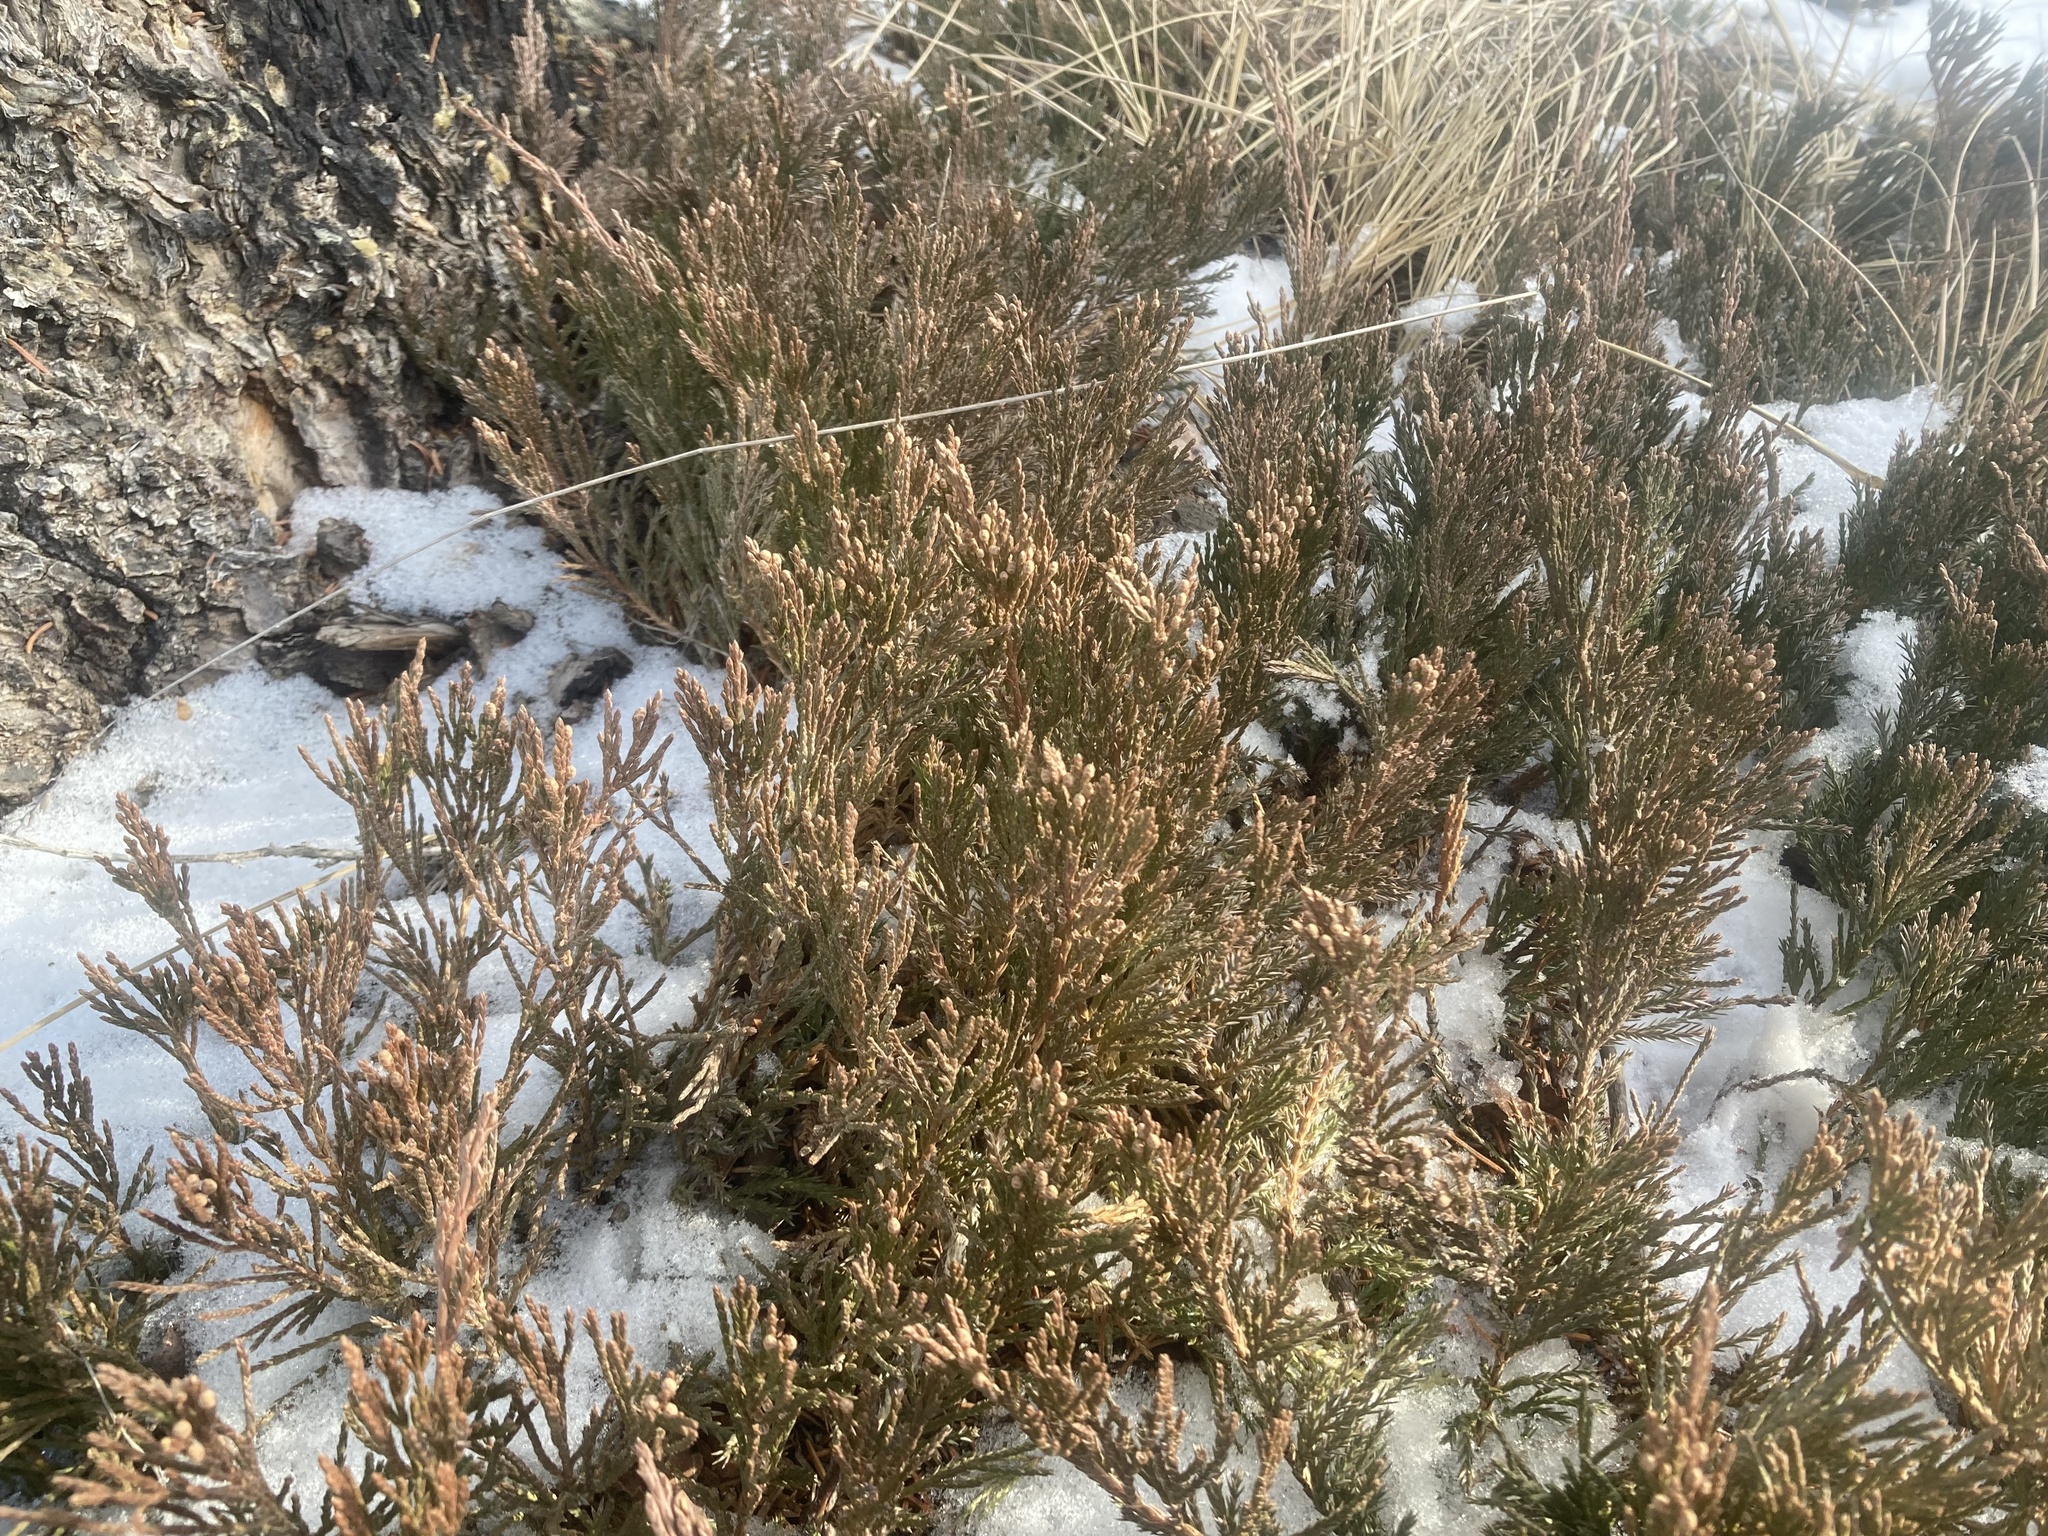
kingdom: Plantae
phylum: Tracheophyta
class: Pinopsida
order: Pinales
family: Cupressaceae
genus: Juniperus
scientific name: Juniperus horizontalis
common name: Creeping juniper
